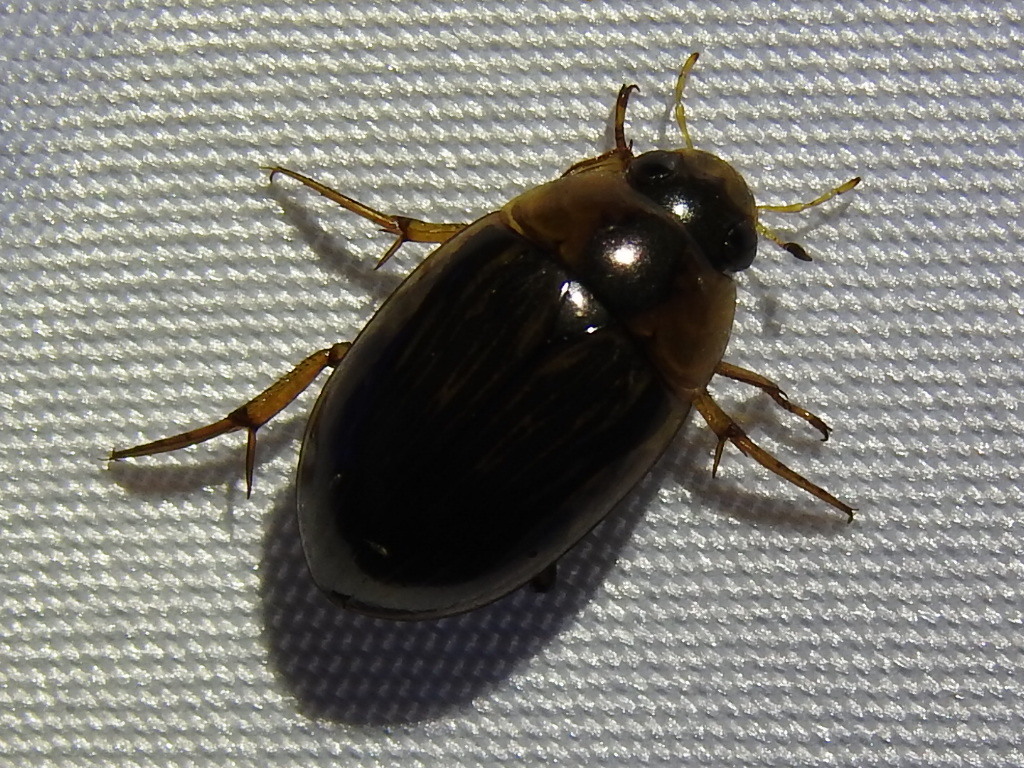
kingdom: Animalia
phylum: Arthropoda
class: Insecta
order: Coleoptera
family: Hydrophilidae
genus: Tropisternus
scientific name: Tropisternus collaris
